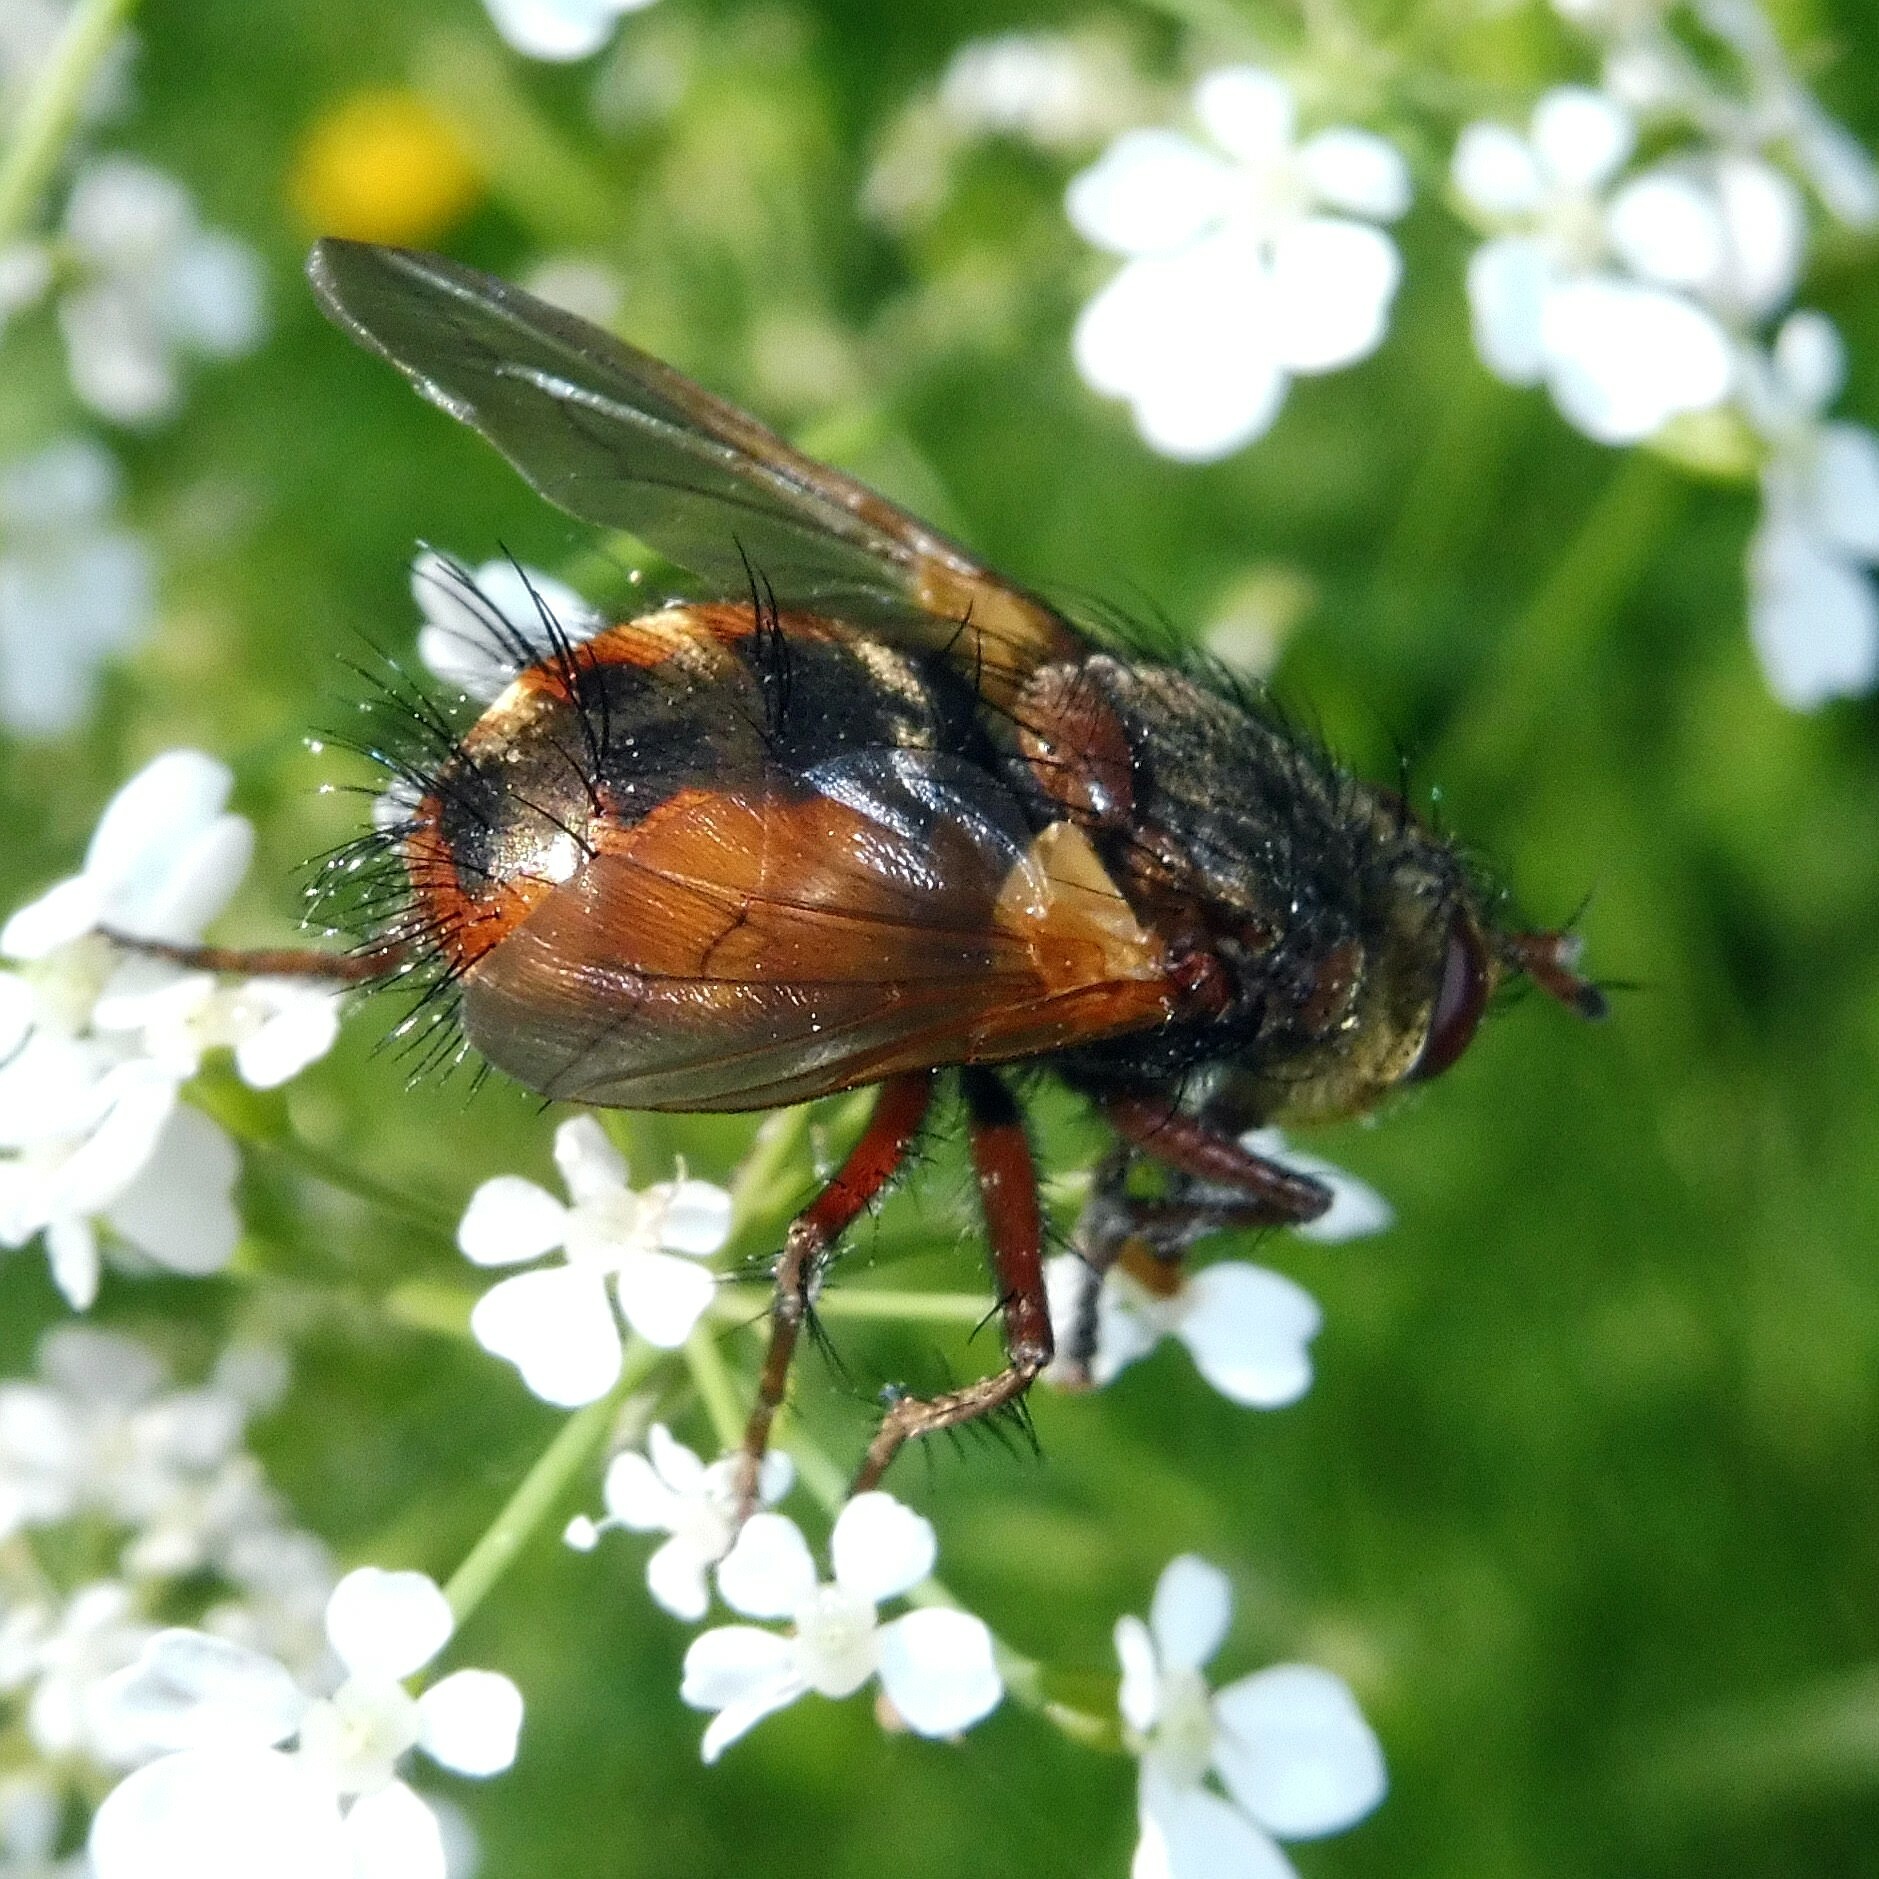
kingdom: Animalia
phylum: Arthropoda
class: Insecta
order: Diptera
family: Tachinidae
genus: Tachina
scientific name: Tachina fera
